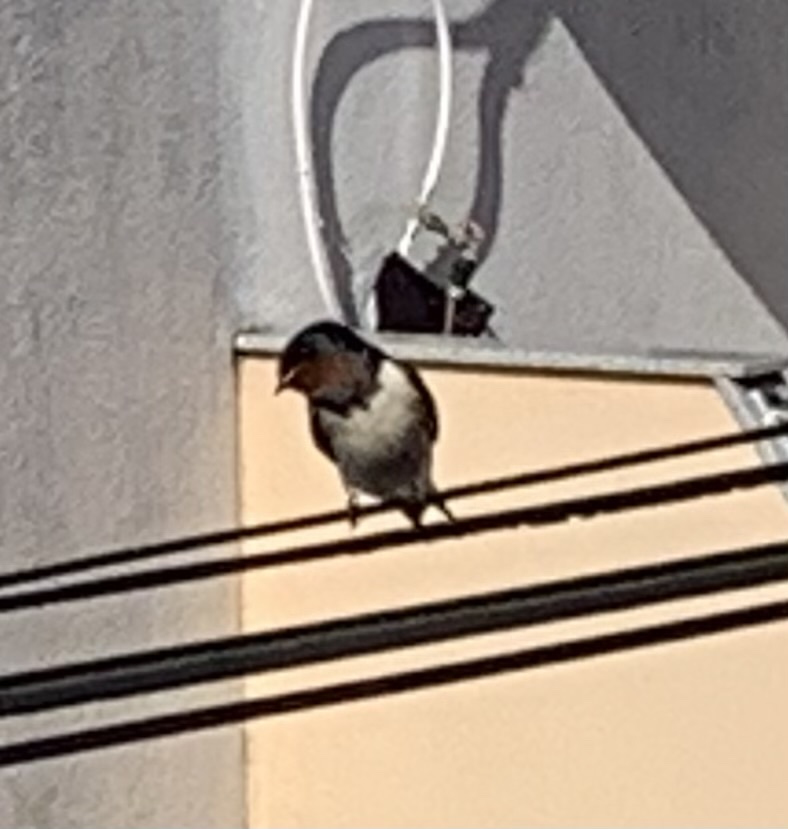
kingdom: Animalia
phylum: Chordata
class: Aves
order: Passeriformes
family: Hirundinidae
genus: Hirundo
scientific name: Hirundo rustica
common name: Barn swallow
